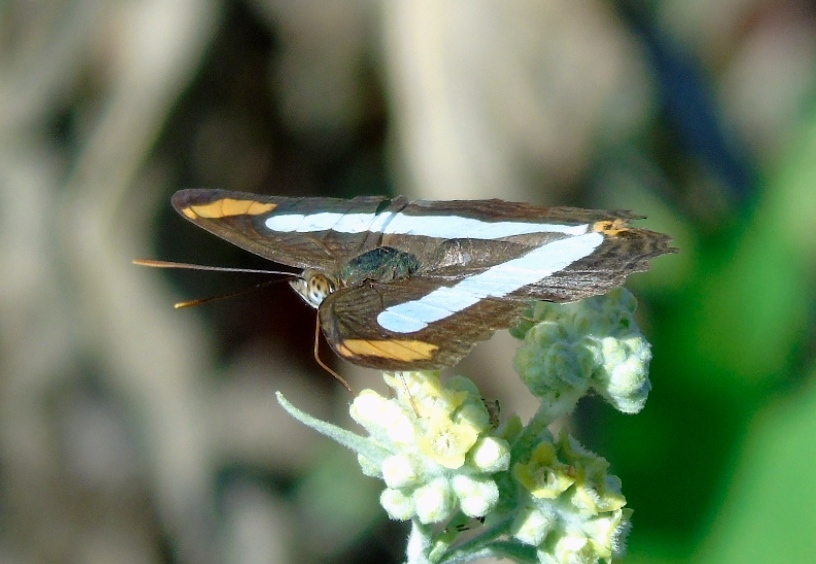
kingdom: Animalia
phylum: Arthropoda
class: Insecta
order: Lepidoptera
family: Nymphalidae
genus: Limenitis
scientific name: Limenitis iphiclus
